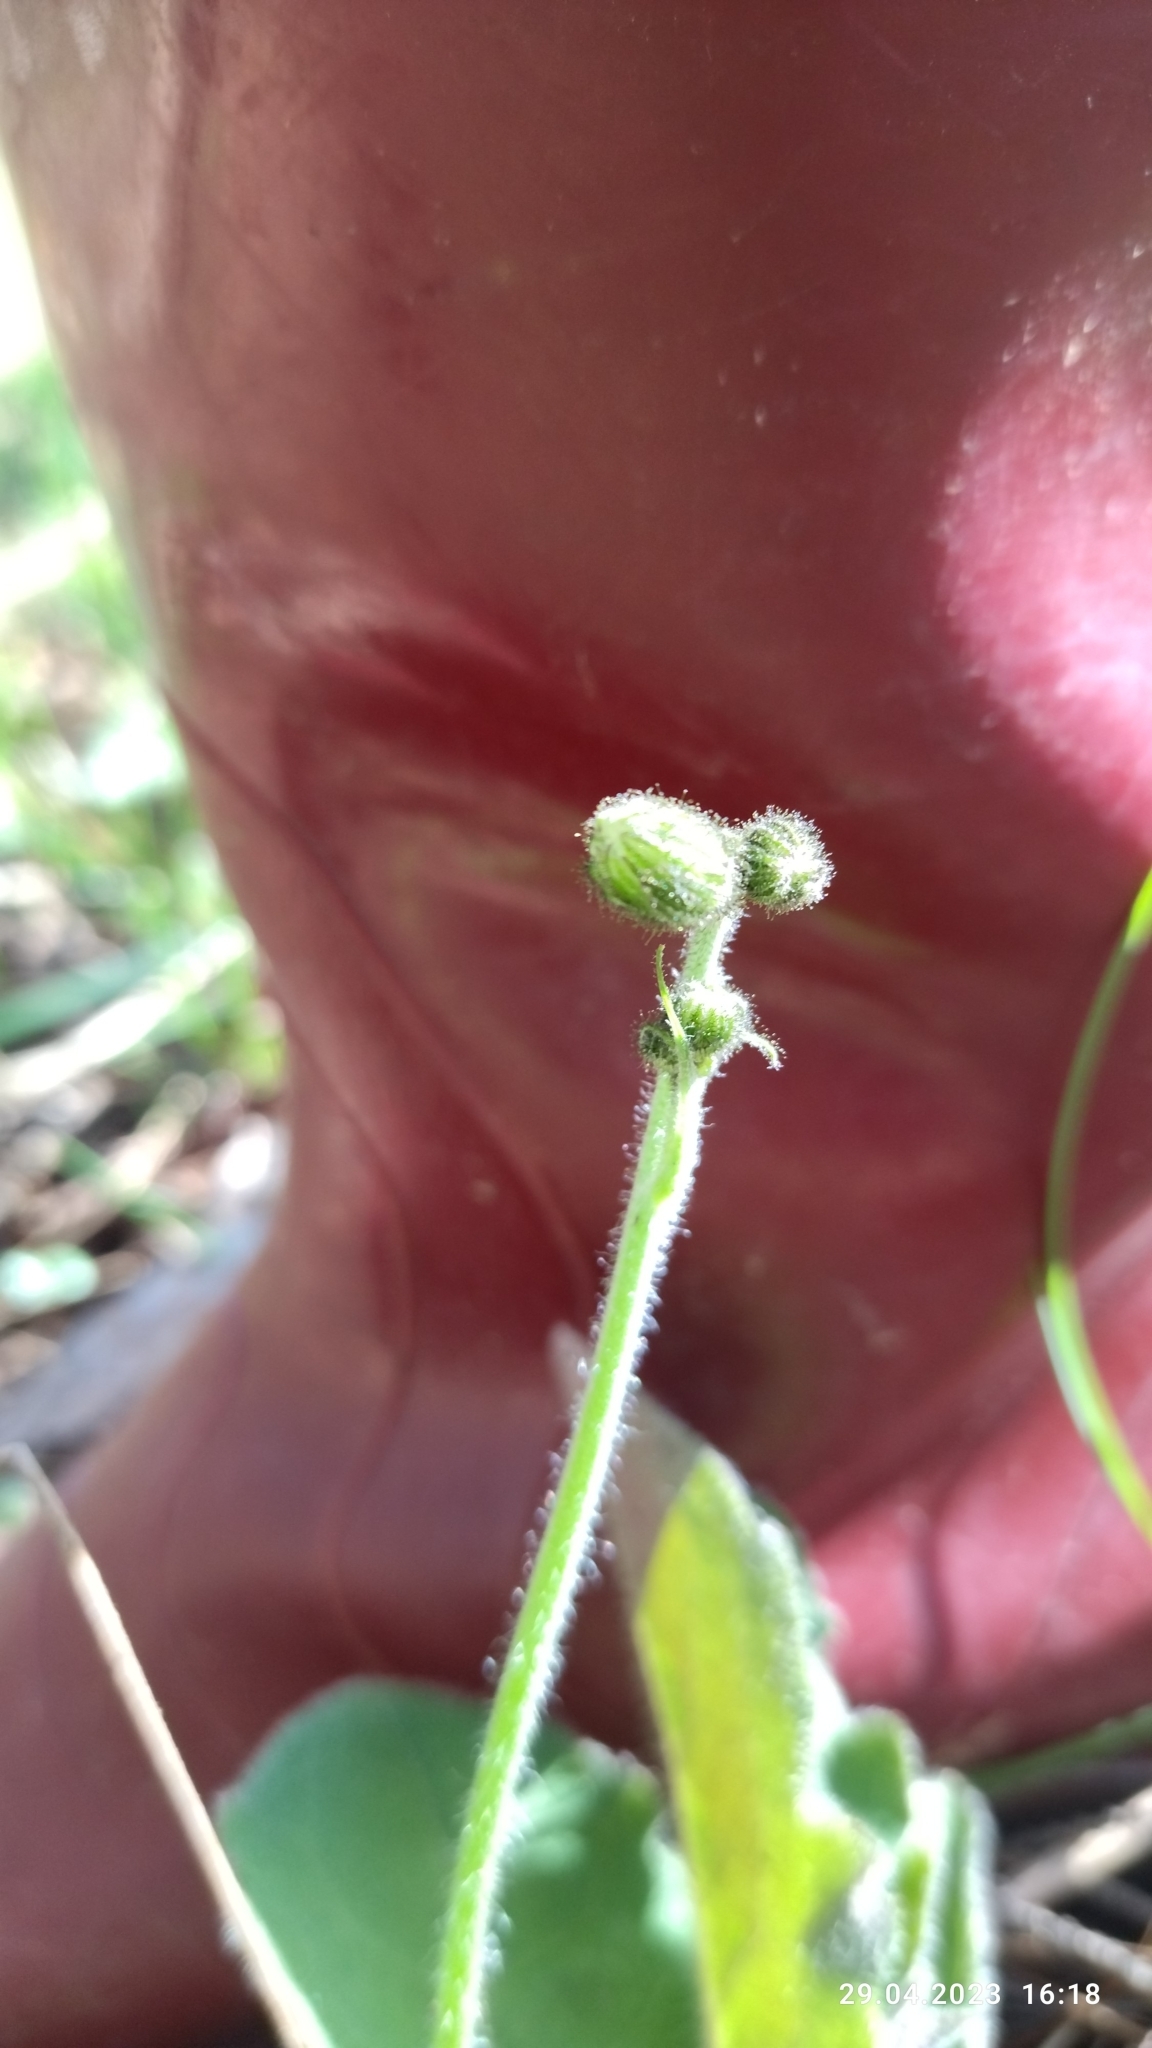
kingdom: Plantae
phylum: Tracheophyta
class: Magnoliopsida
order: Asterales
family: Asteraceae
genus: Hieracium
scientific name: Hieracium murorum
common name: Wall hawkweed
